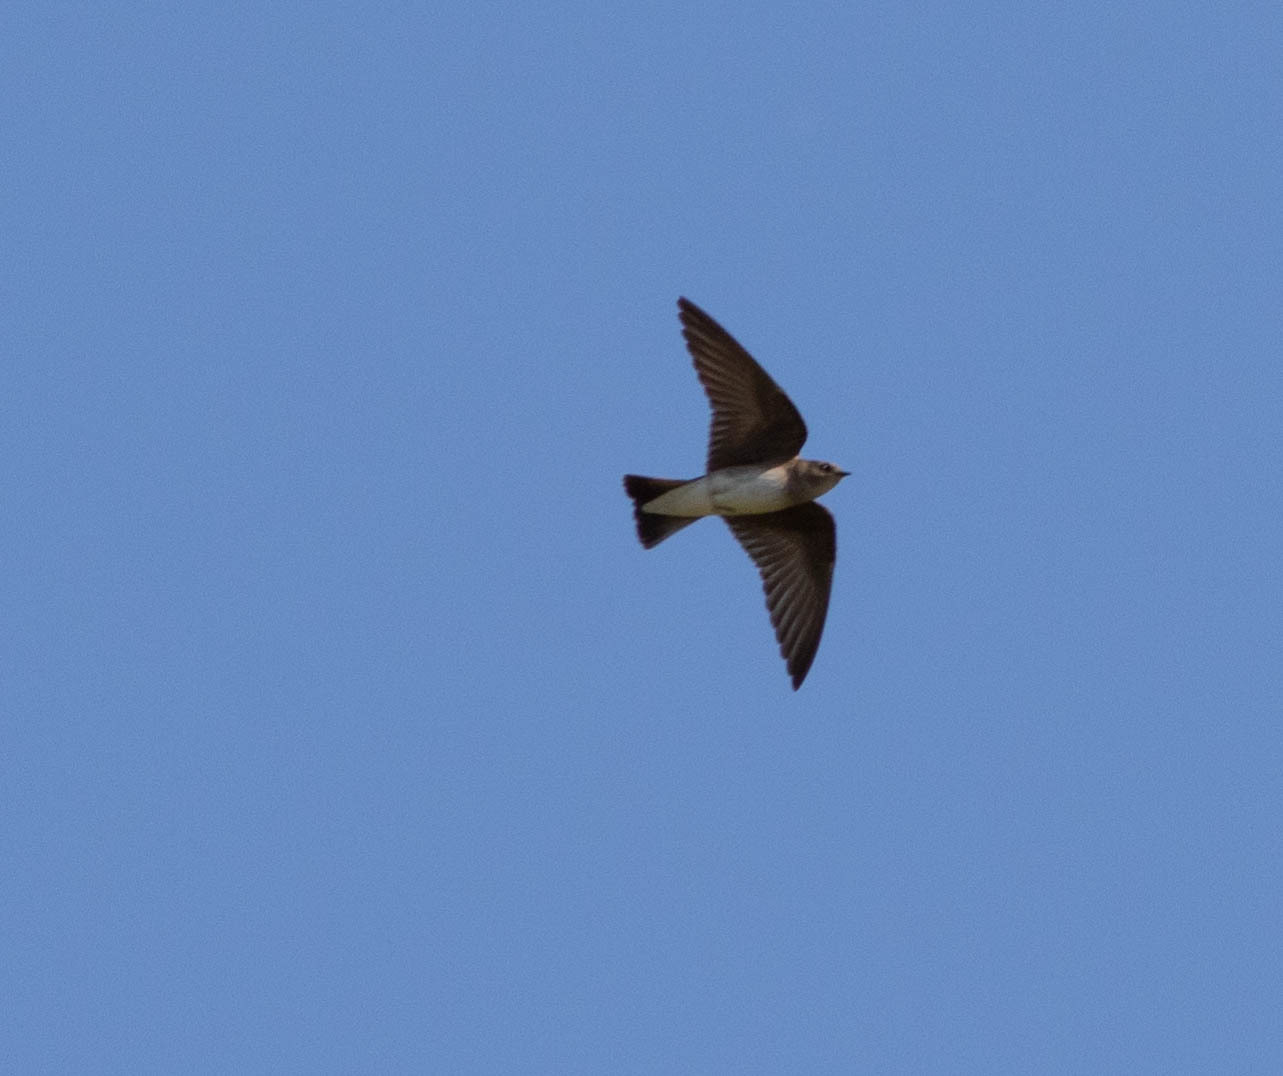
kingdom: Animalia
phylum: Chordata
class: Aves
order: Passeriformes
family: Hirundinidae
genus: Stelgidopteryx
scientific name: Stelgidopteryx serripennis
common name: Northern rough-winged swallow
